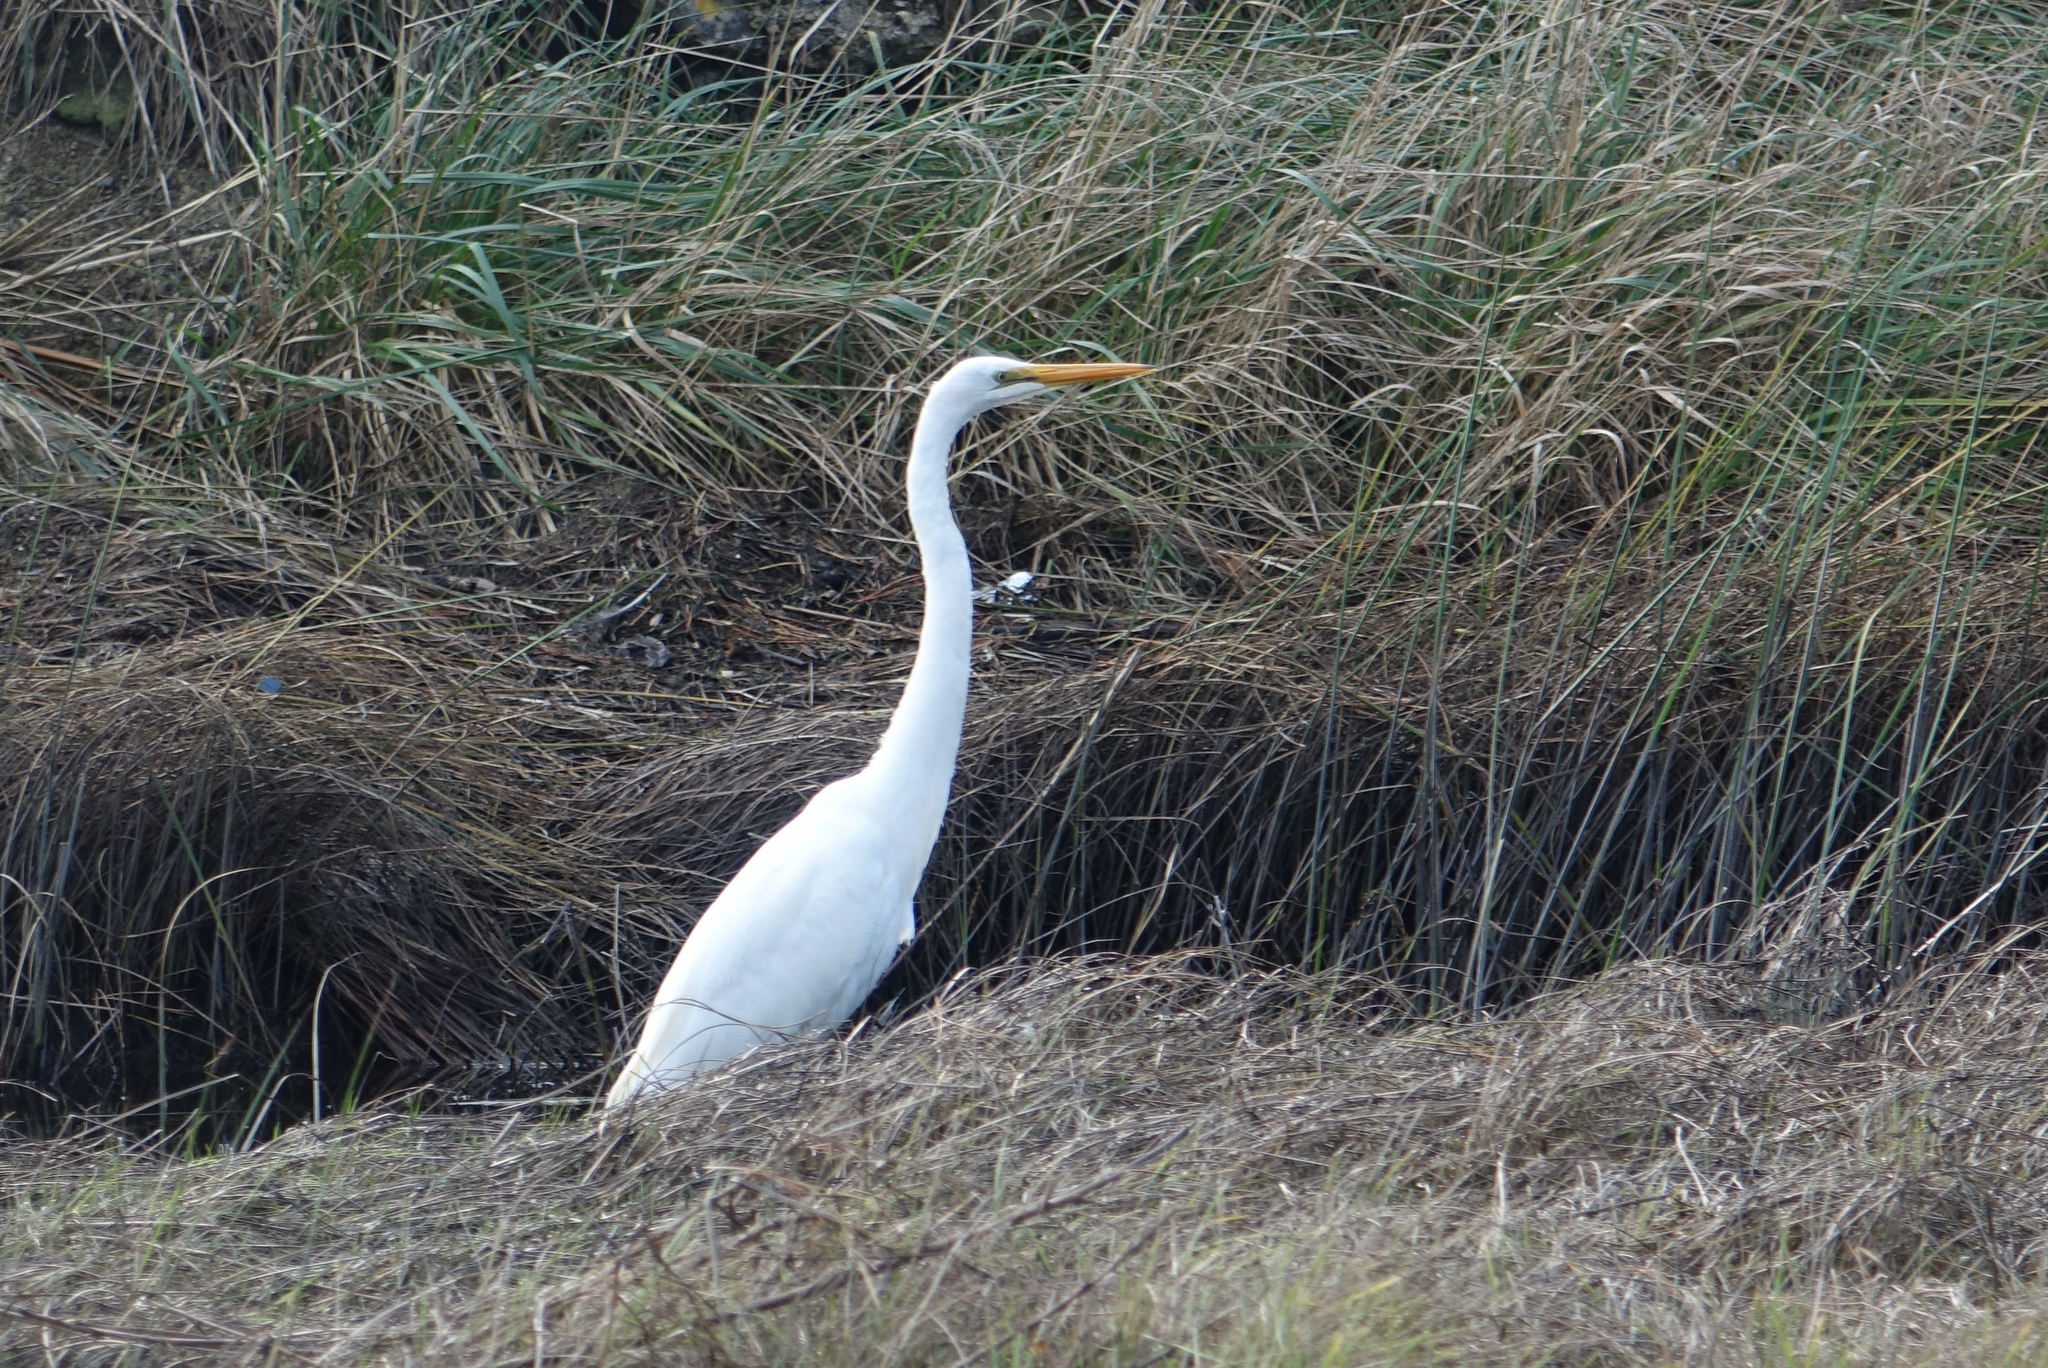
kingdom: Animalia
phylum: Chordata
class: Aves
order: Pelecaniformes
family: Ardeidae
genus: Ardea
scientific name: Ardea modesta
